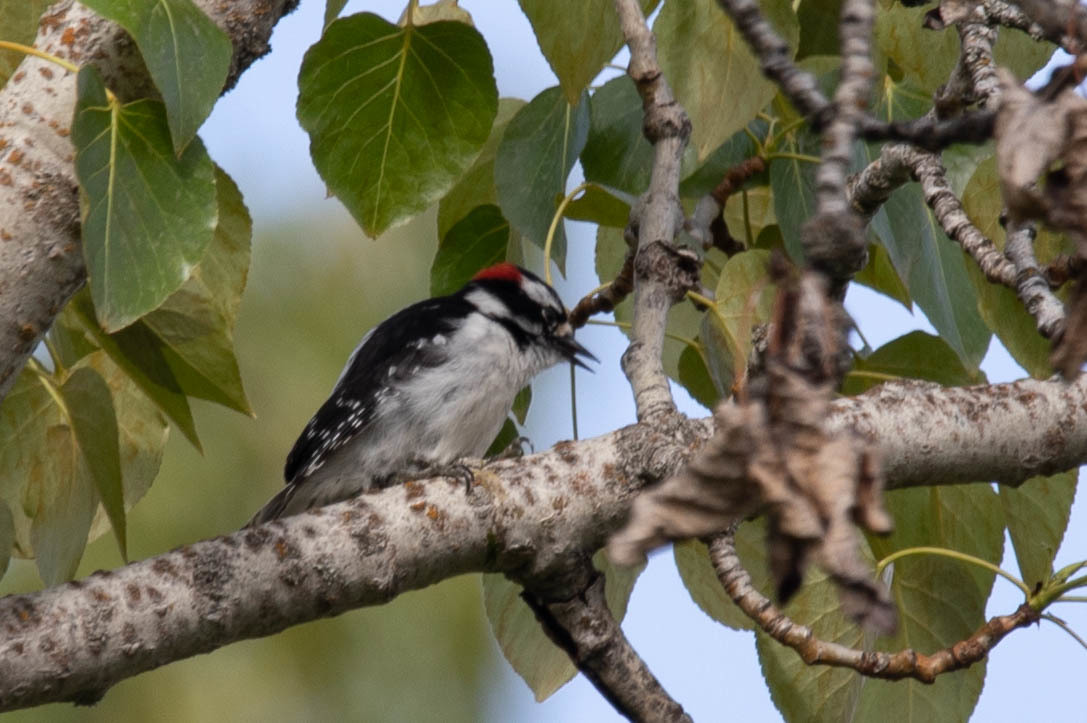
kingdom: Animalia
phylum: Chordata
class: Aves
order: Piciformes
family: Picidae
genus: Dryobates
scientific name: Dryobates pubescens
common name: Downy woodpecker
